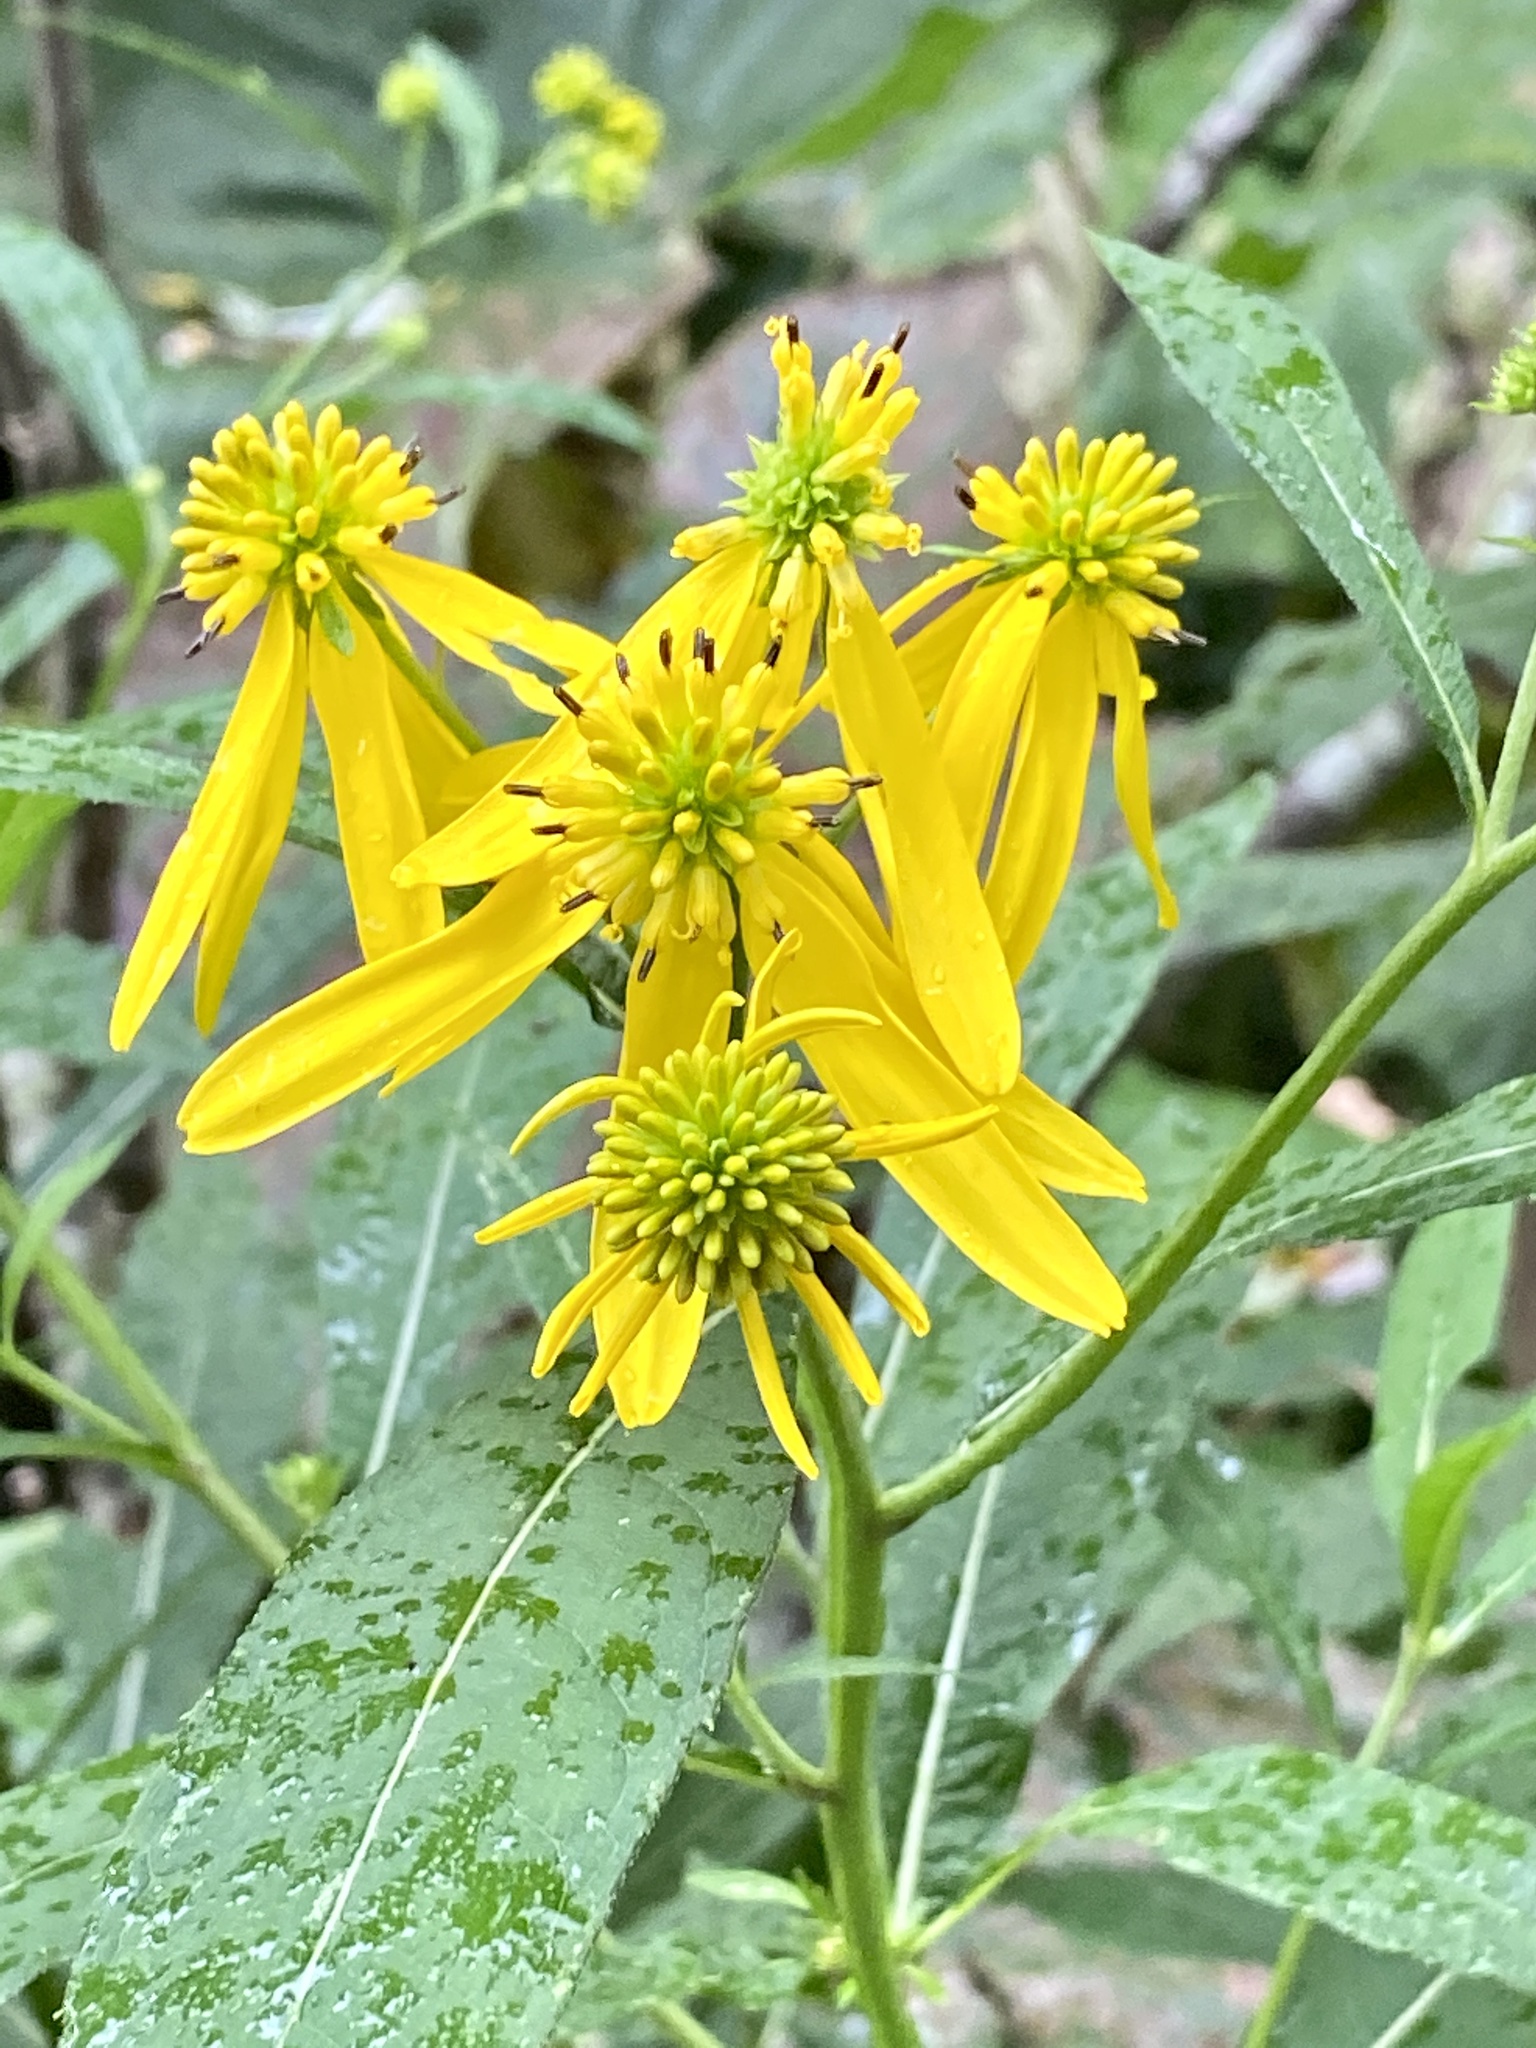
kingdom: Plantae
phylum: Tracheophyta
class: Magnoliopsida
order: Asterales
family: Asteraceae
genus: Verbesina
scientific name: Verbesina alternifolia
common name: Wingstem
